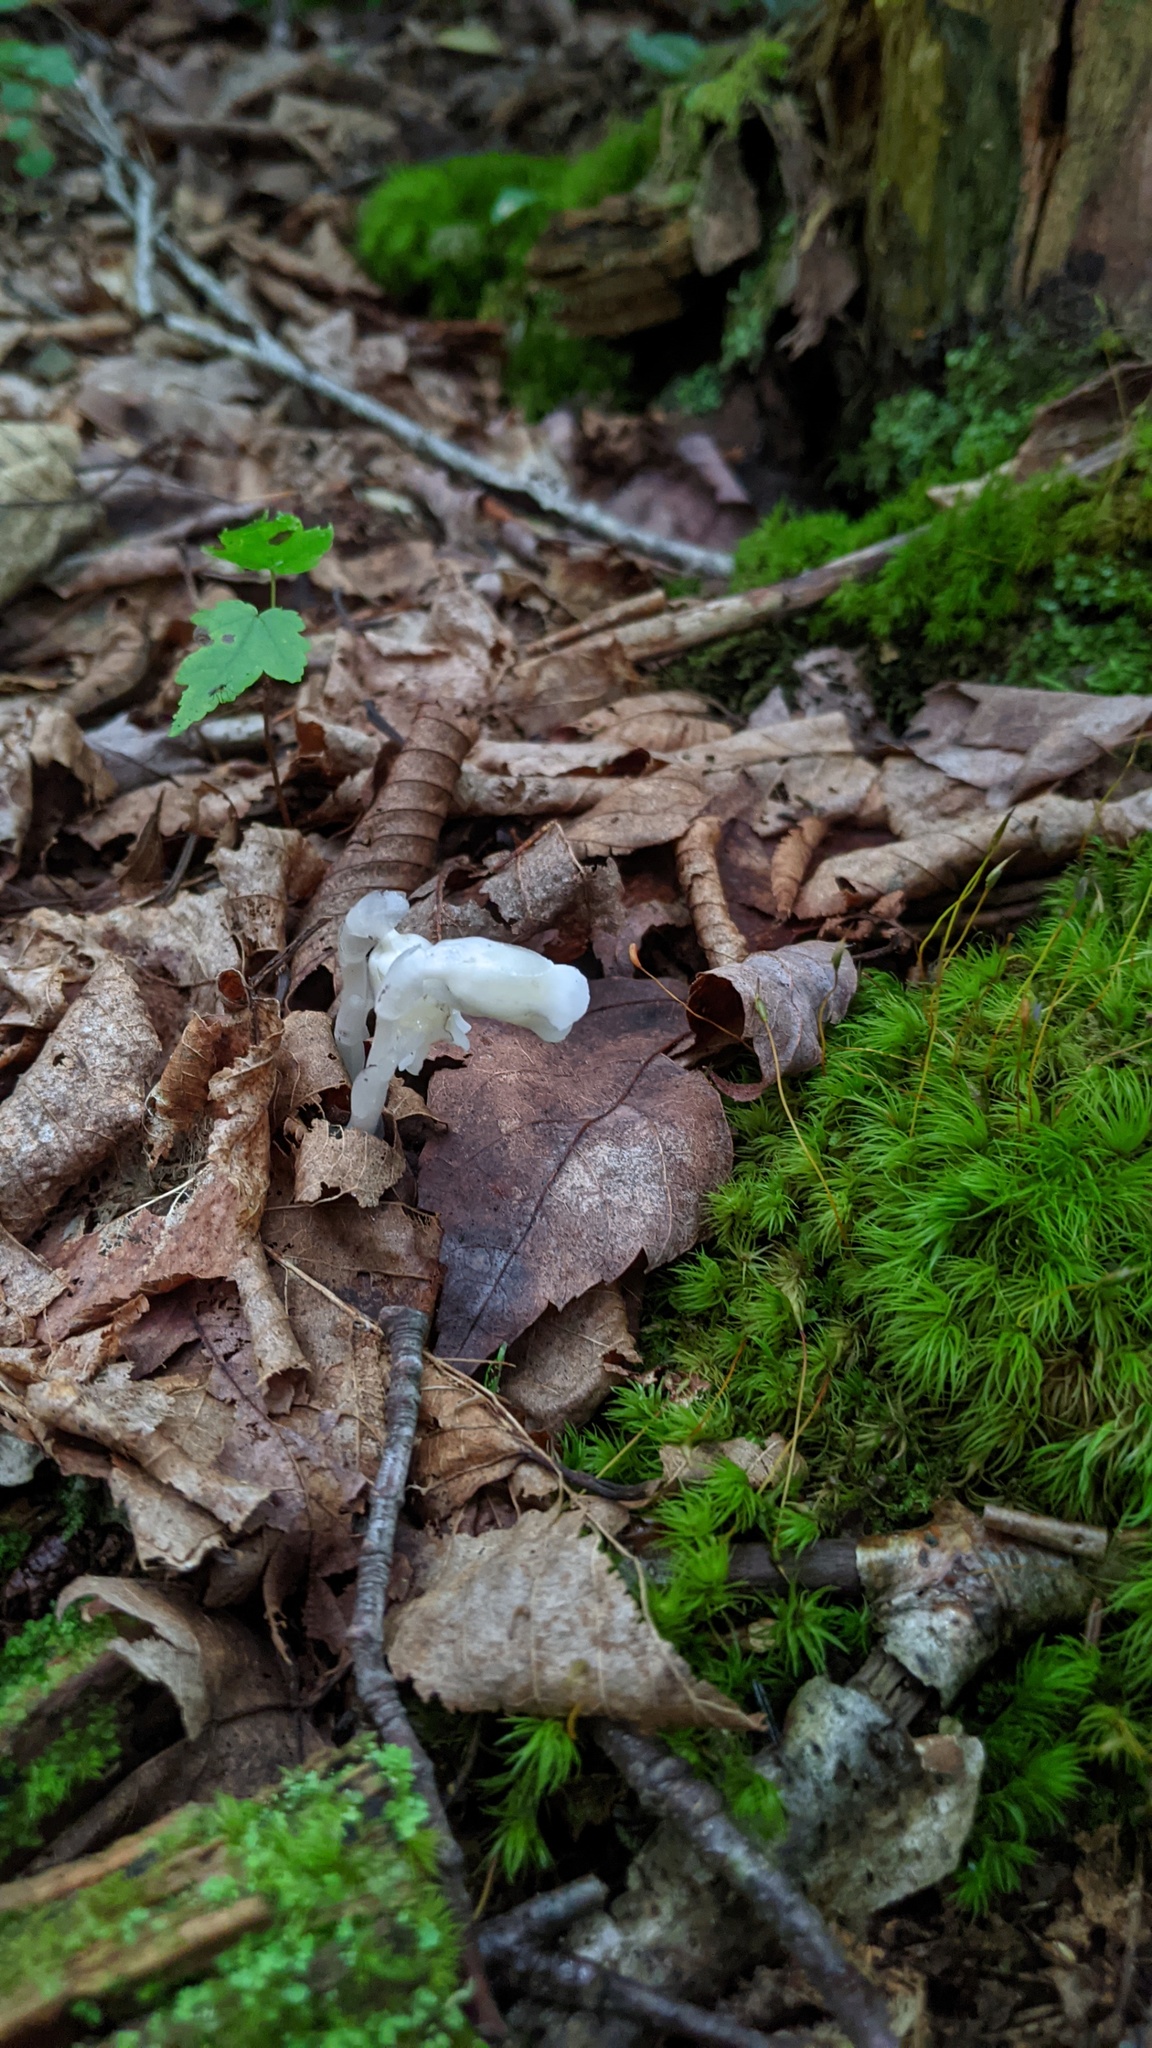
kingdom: Plantae
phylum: Tracheophyta
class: Magnoliopsida
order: Ericales
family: Ericaceae
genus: Monotropa
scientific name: Monotropa uniflora
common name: Convulsion root
